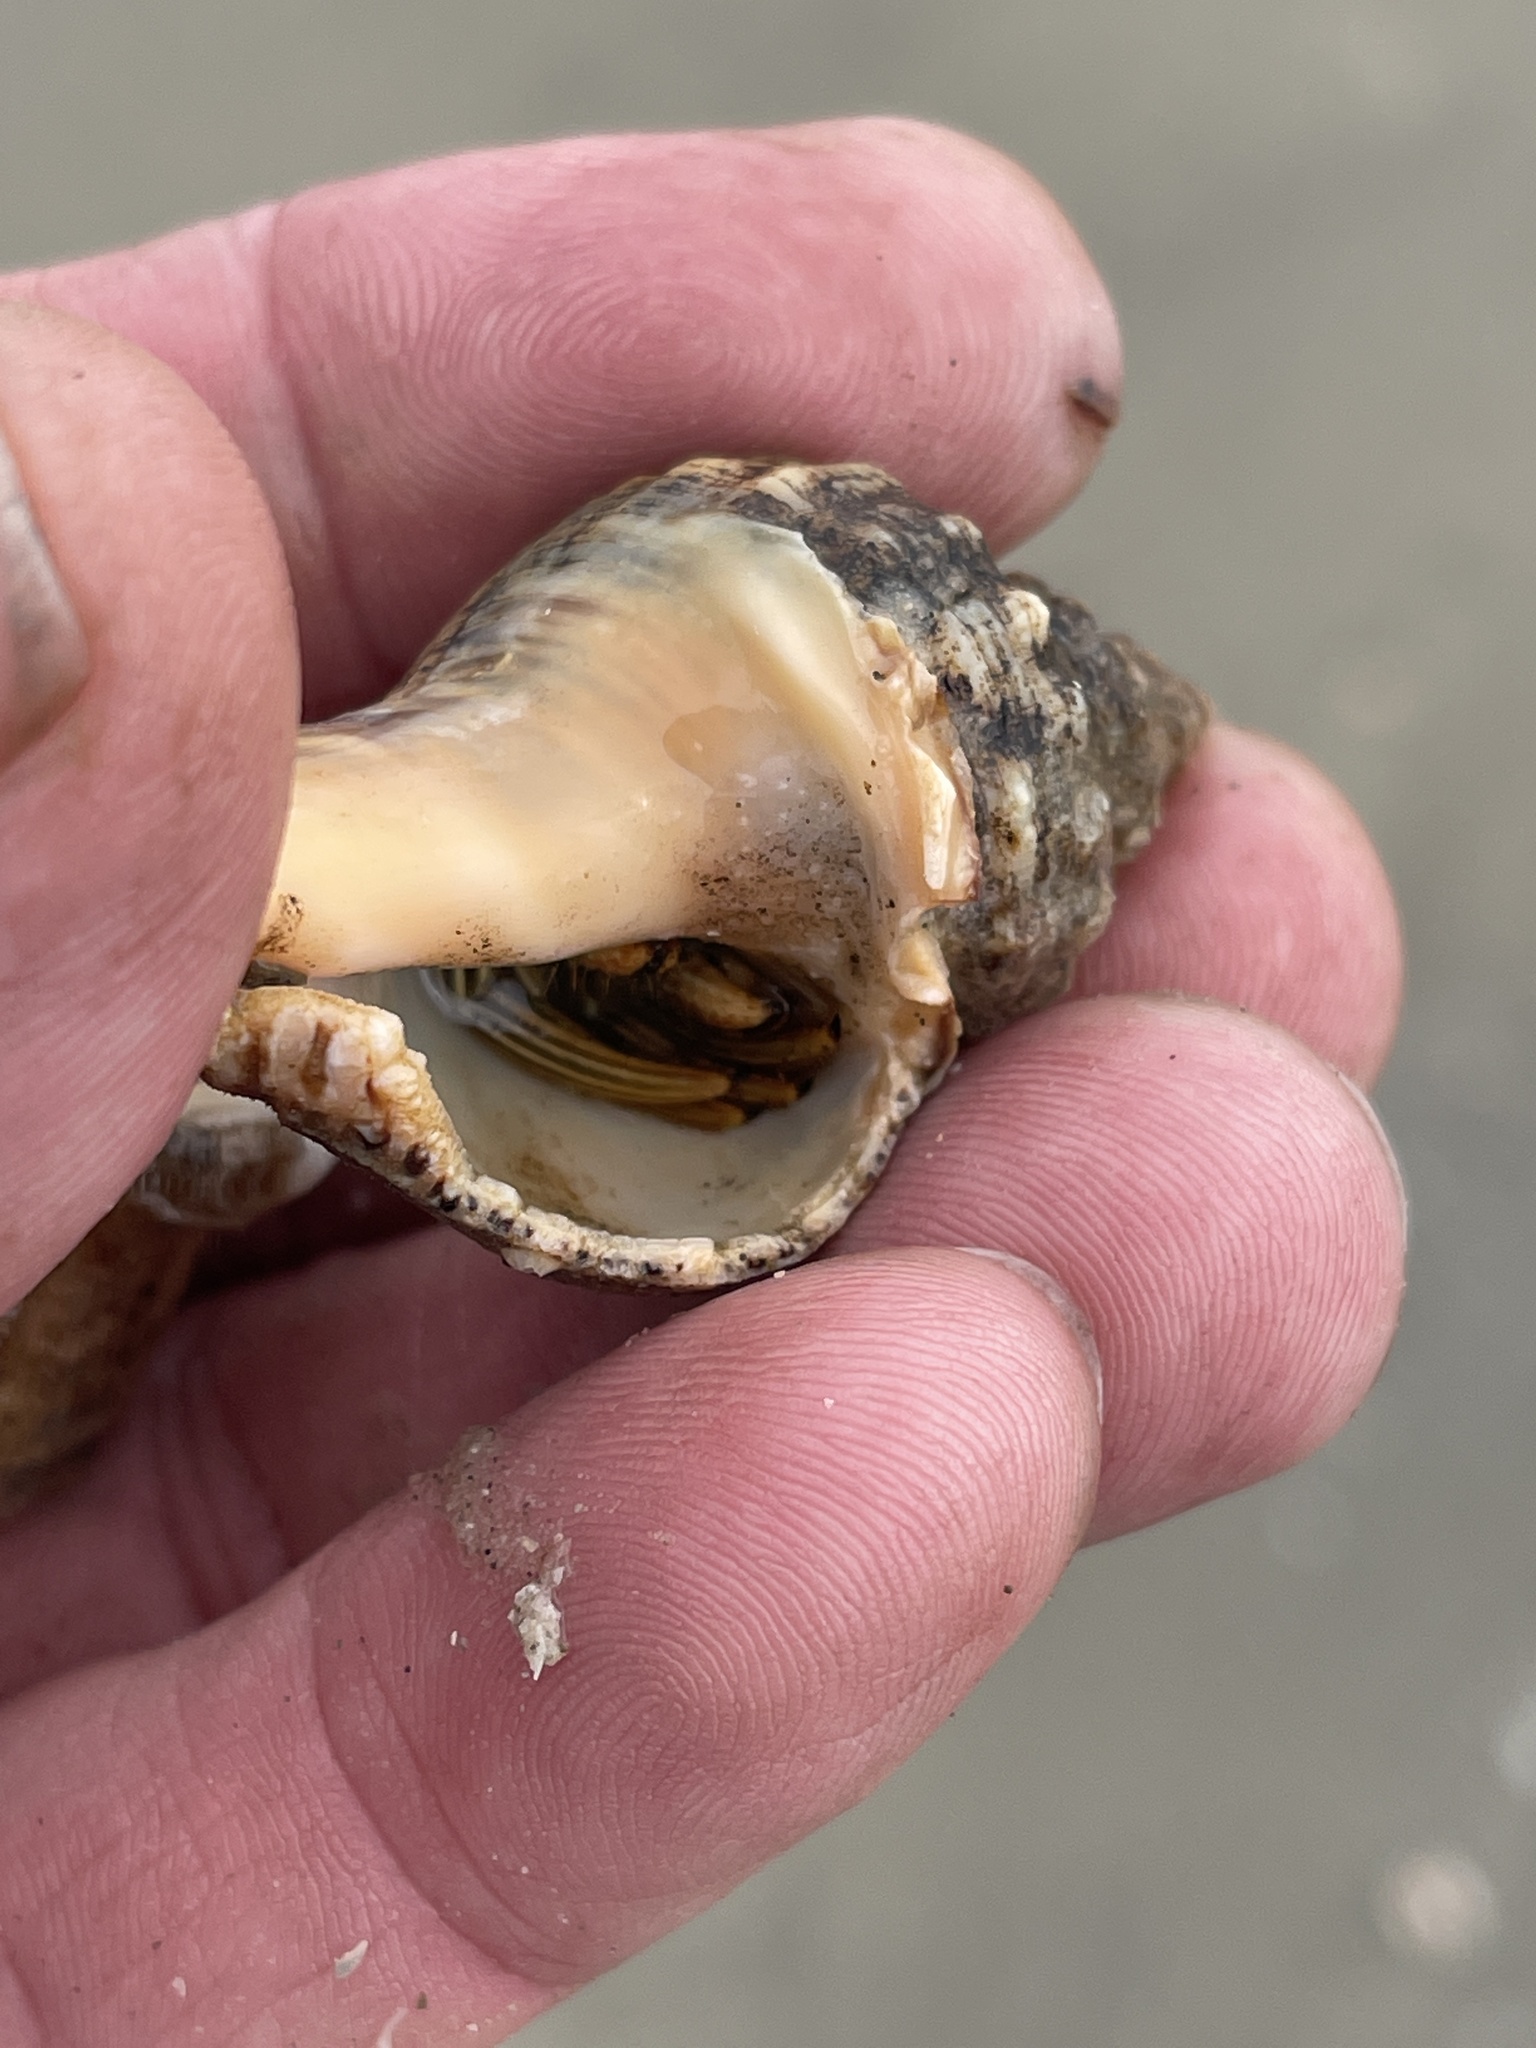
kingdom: Animalia
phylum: Arthropoda
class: Malacostraca
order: Decapoda
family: Diogenidae
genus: Clibanarius
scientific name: Clibanarius vittatus
